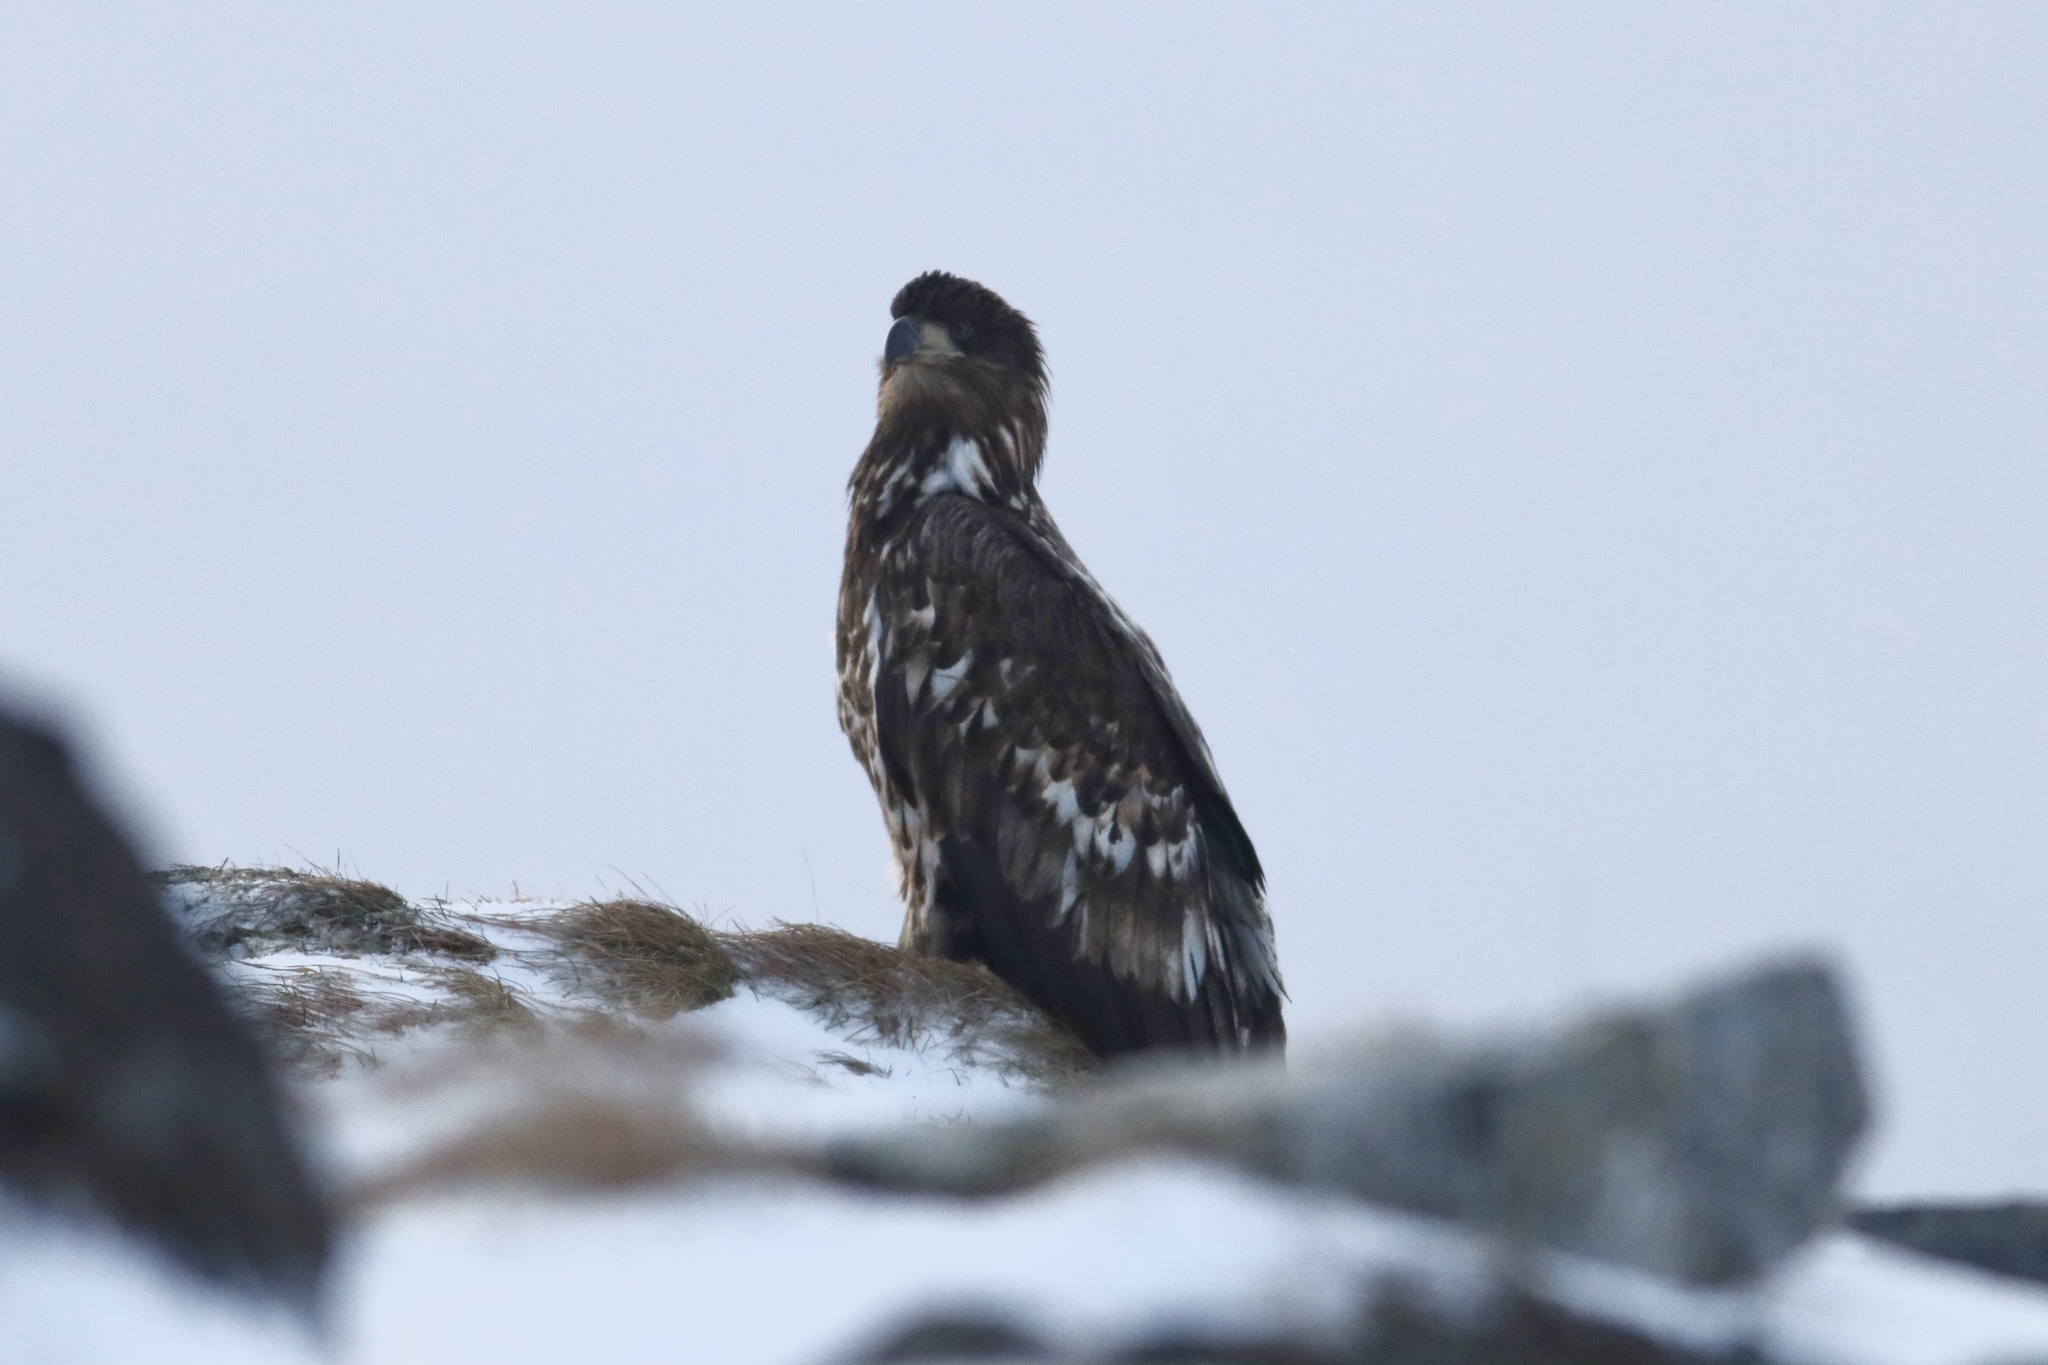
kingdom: Animalia
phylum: Chordata
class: Aves
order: Accipitriformes
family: Accipitridae
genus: Haliaeetus
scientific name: Haliaeetus albicilla
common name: White-tailed eagle
